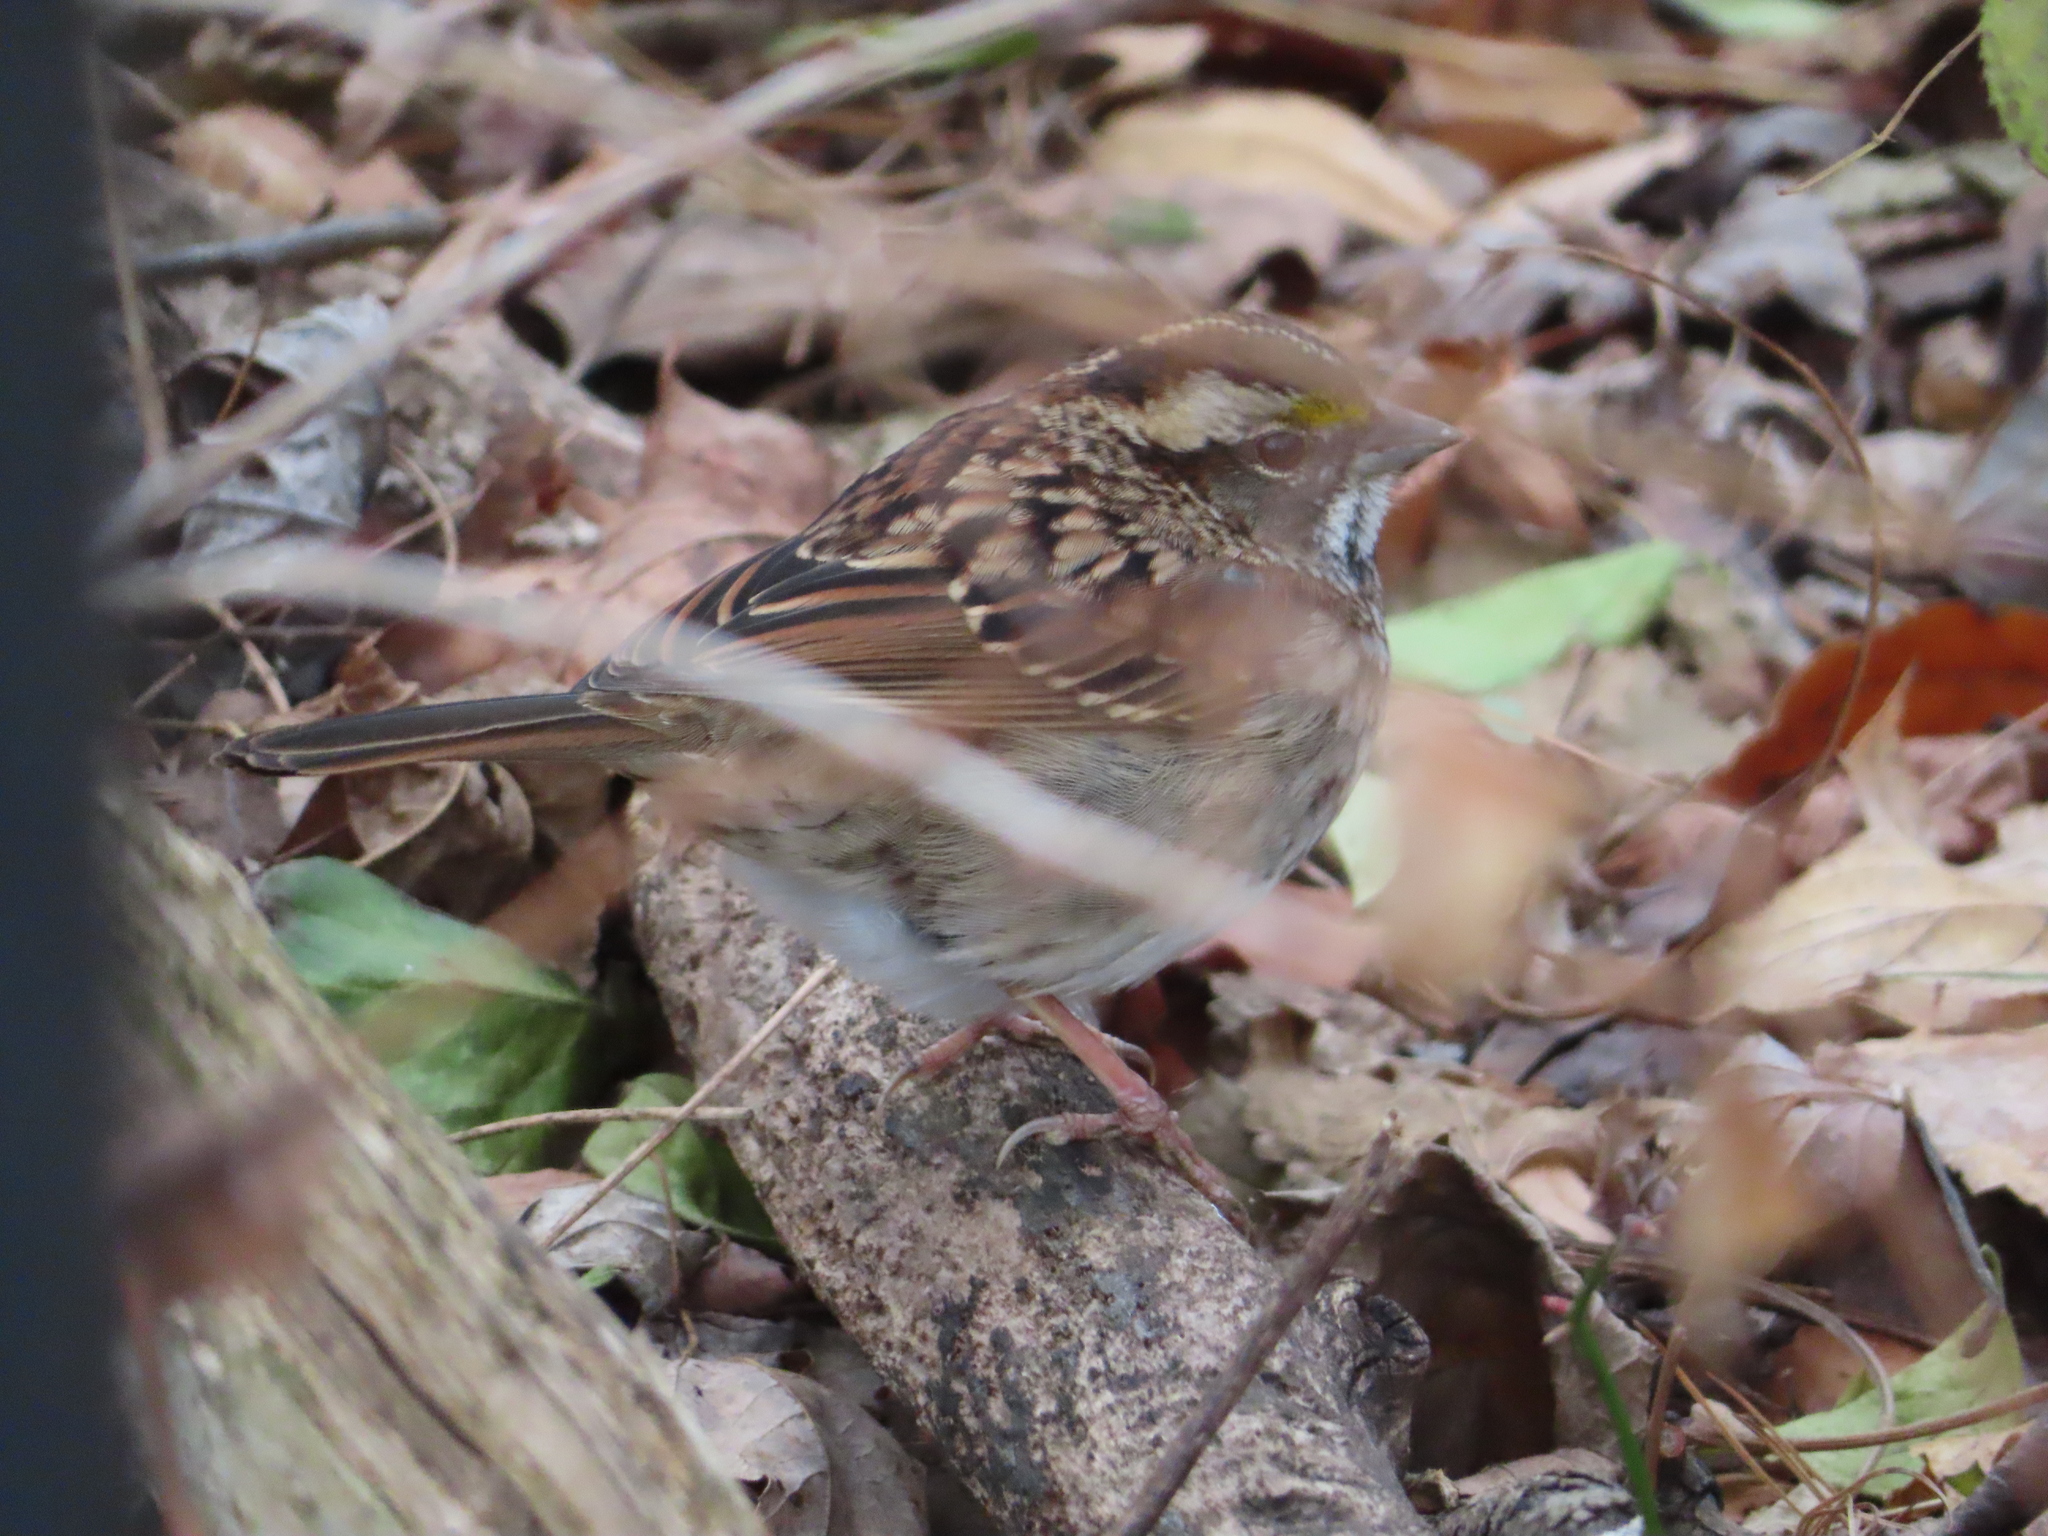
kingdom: Animalia
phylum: Chordata
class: Aves
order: Passeriformes
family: Passerellidae
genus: Zonotrichia
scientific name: Zonotrichia albicollis
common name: White-throated sparrow
